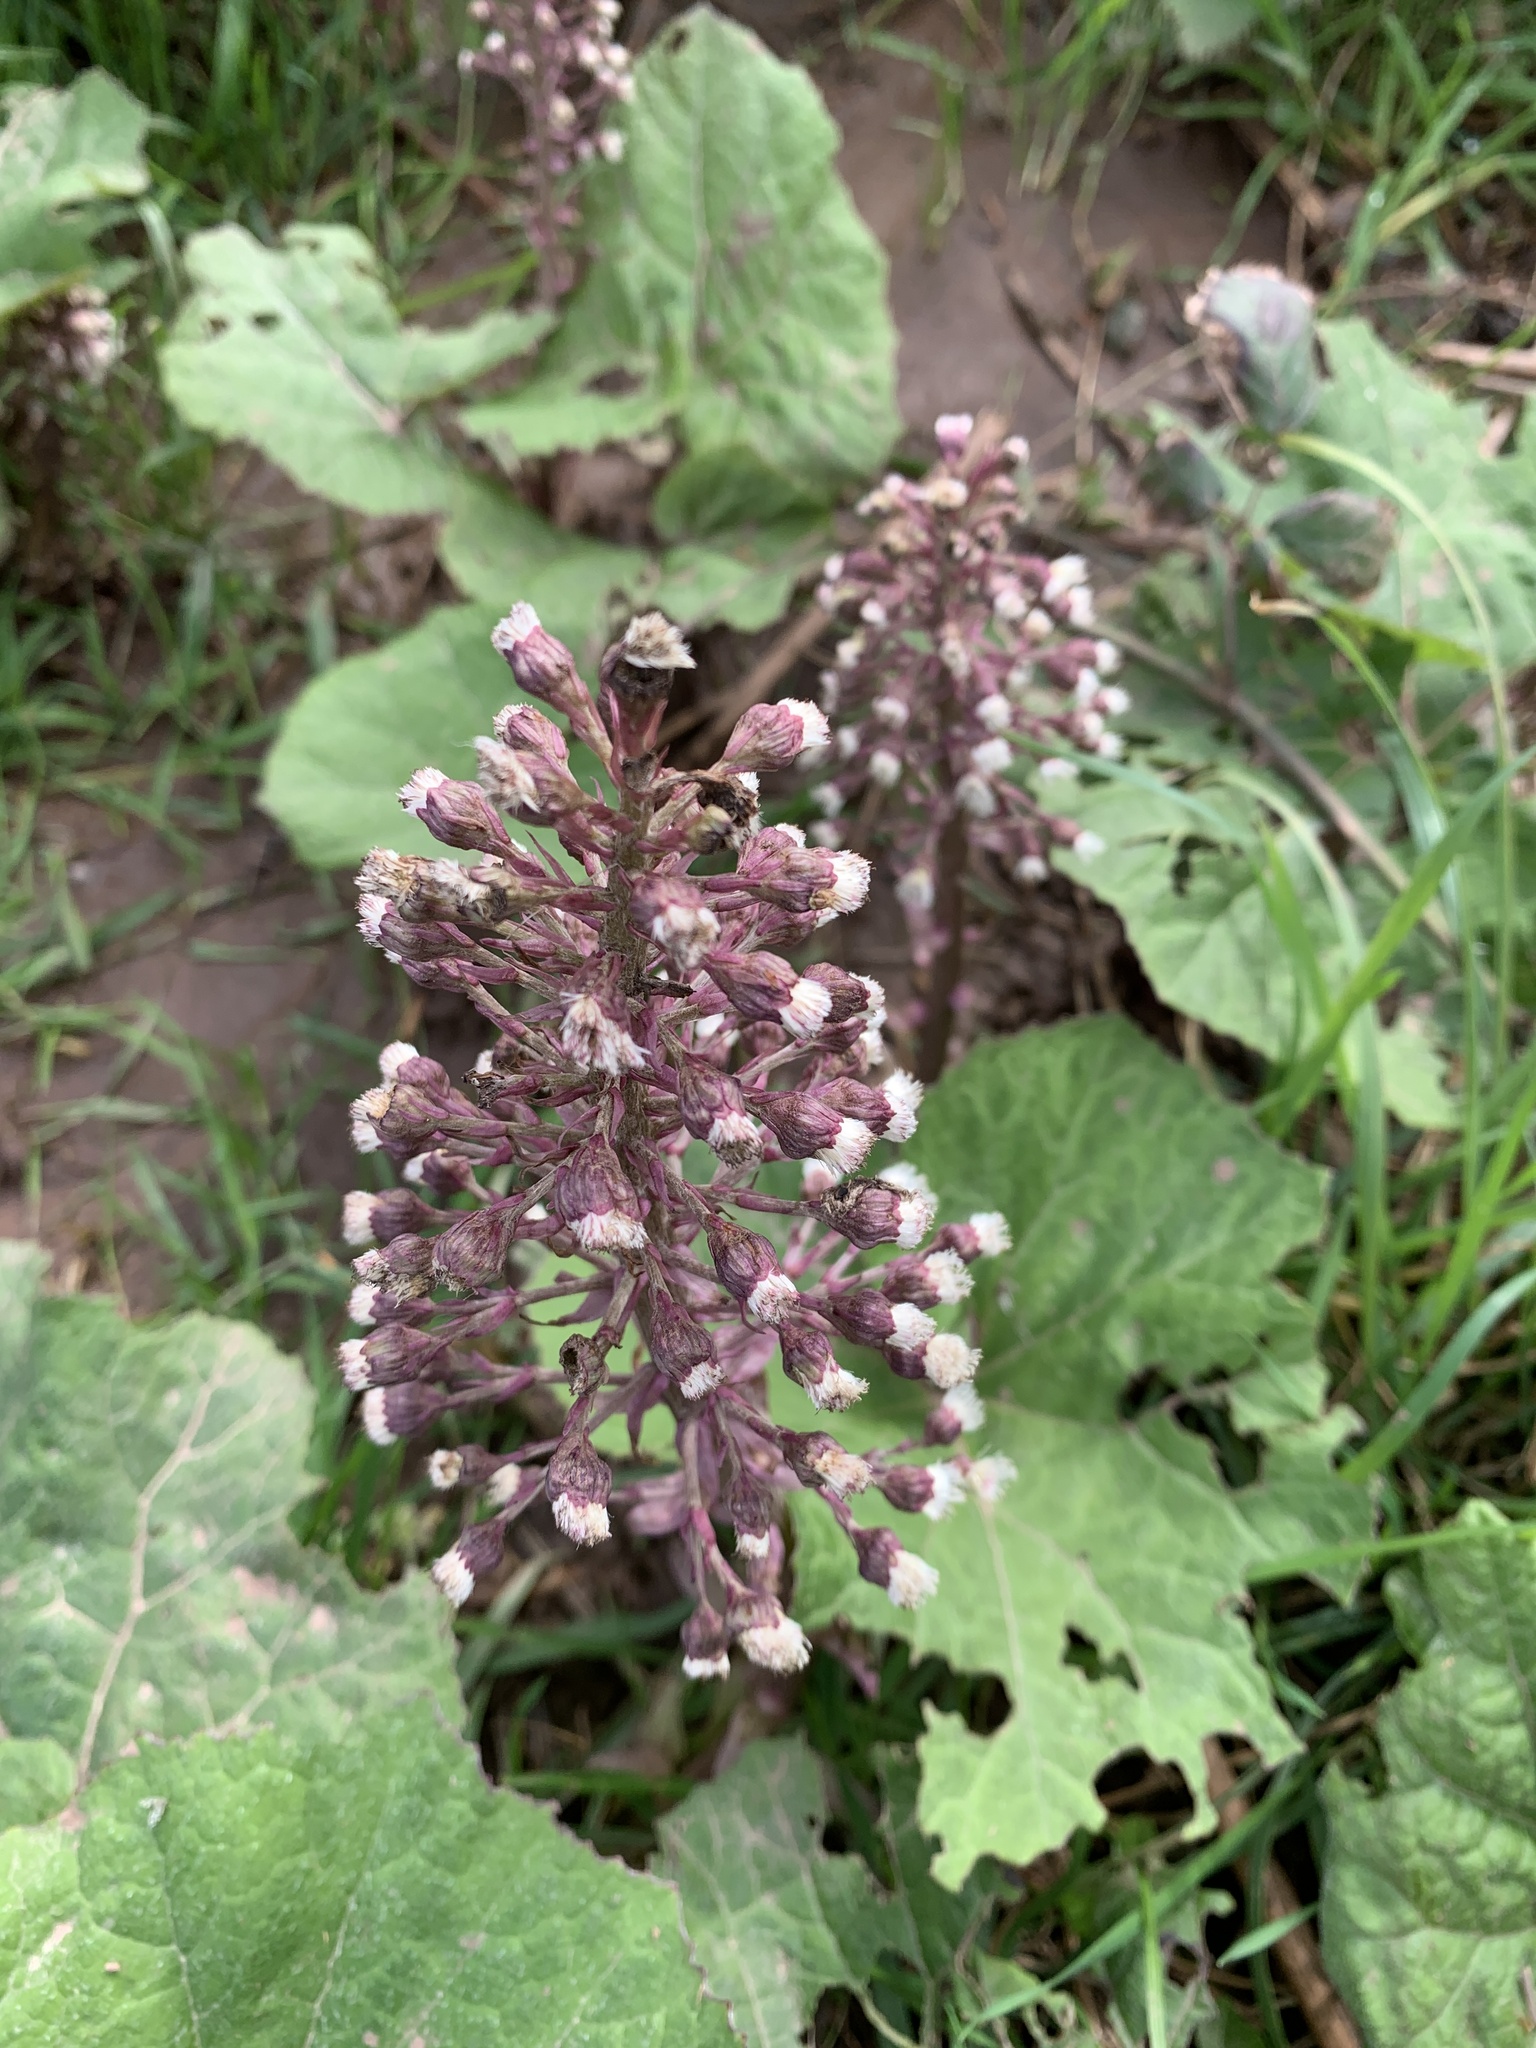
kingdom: Plantae
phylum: Tracheophyta
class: Magnoliopsida
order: Asterales
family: Asteraceae
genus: Petasites
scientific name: Petasites hybridus
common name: Butterbur
